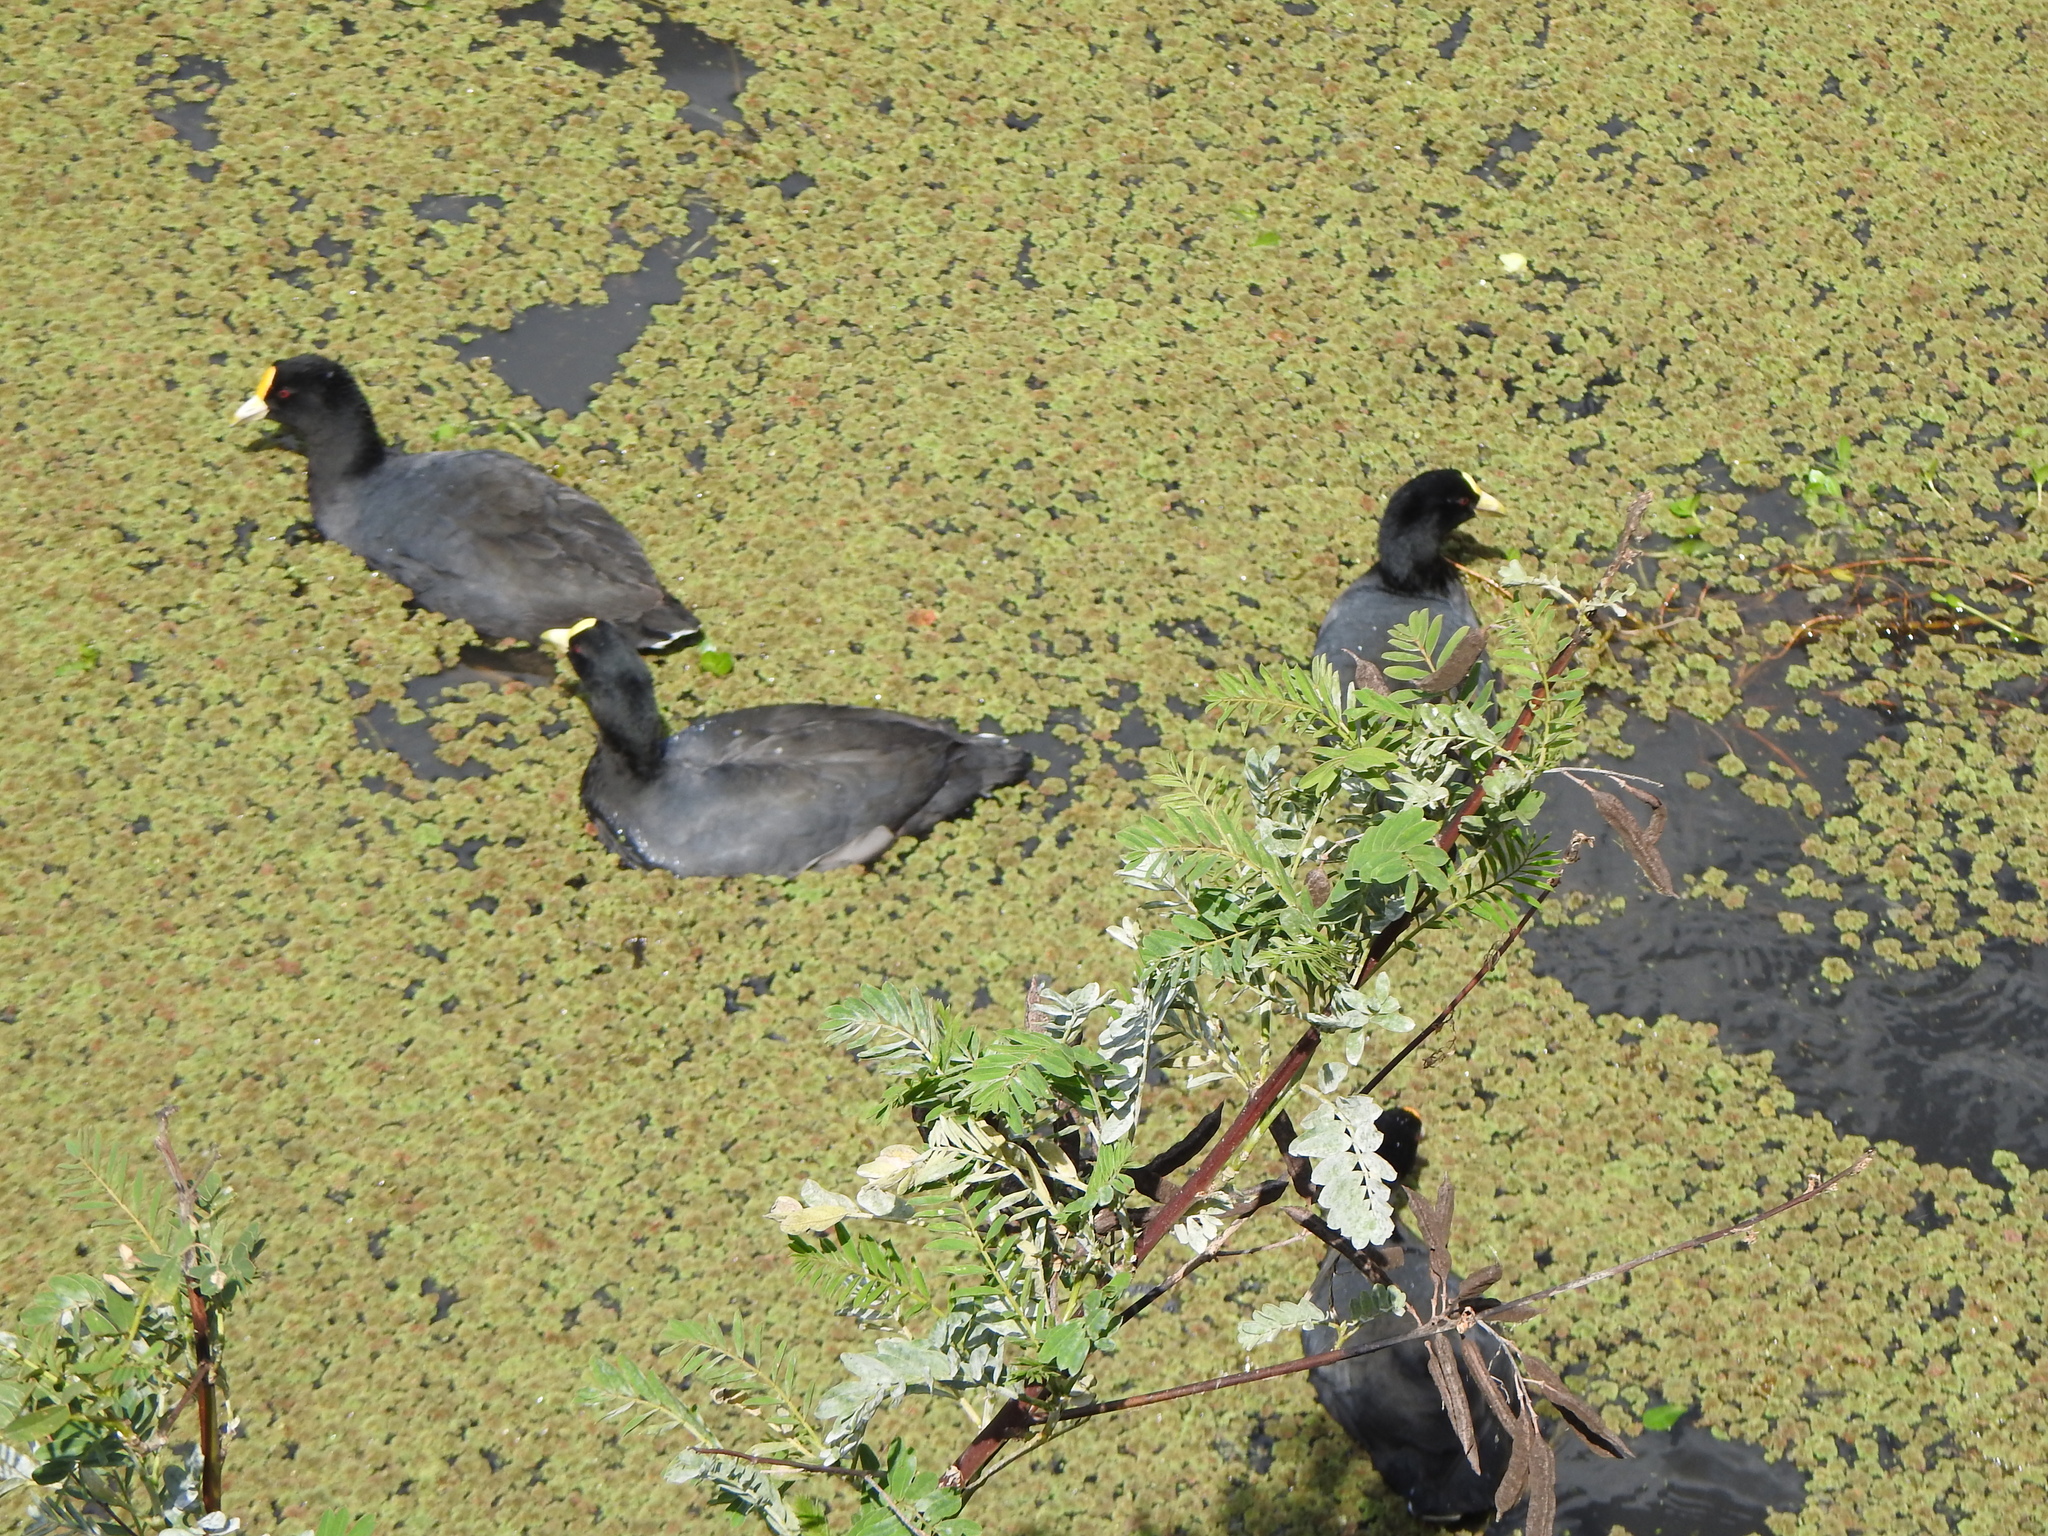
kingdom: Animalia
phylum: Chordata
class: Aves
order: Gruiformes
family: Rallidae
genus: Fulica
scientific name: Fulica leucoptera
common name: White-winged coot
